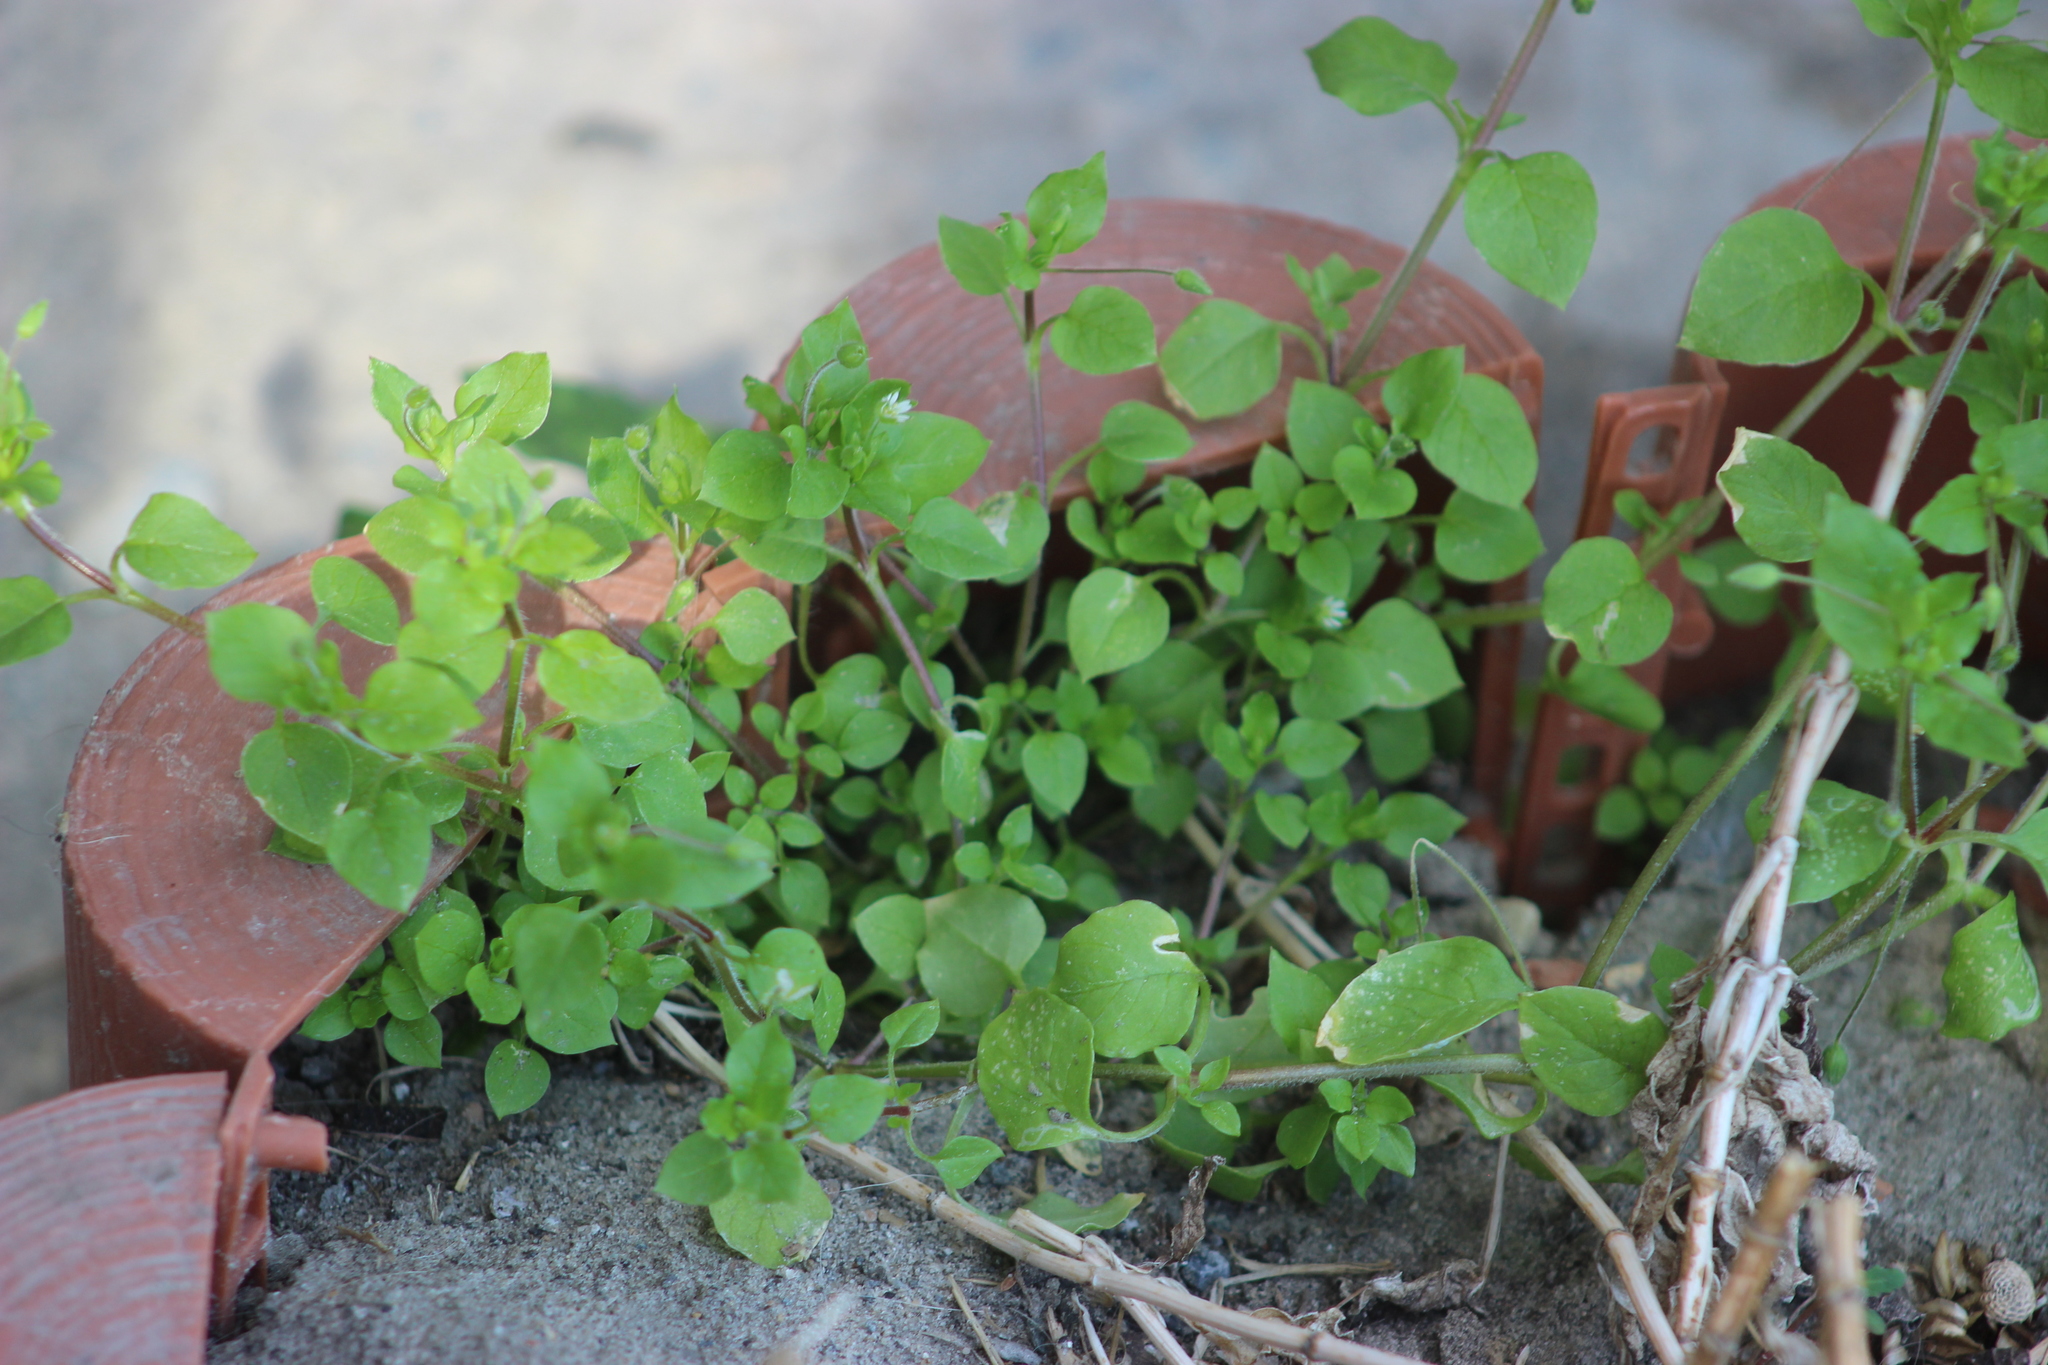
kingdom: Plantae
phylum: Tracheophyta
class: Magnoliopsida
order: Caryophyllales
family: Caryophyllaceae
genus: Stellaria
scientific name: Stellaria media
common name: Common chickweed
